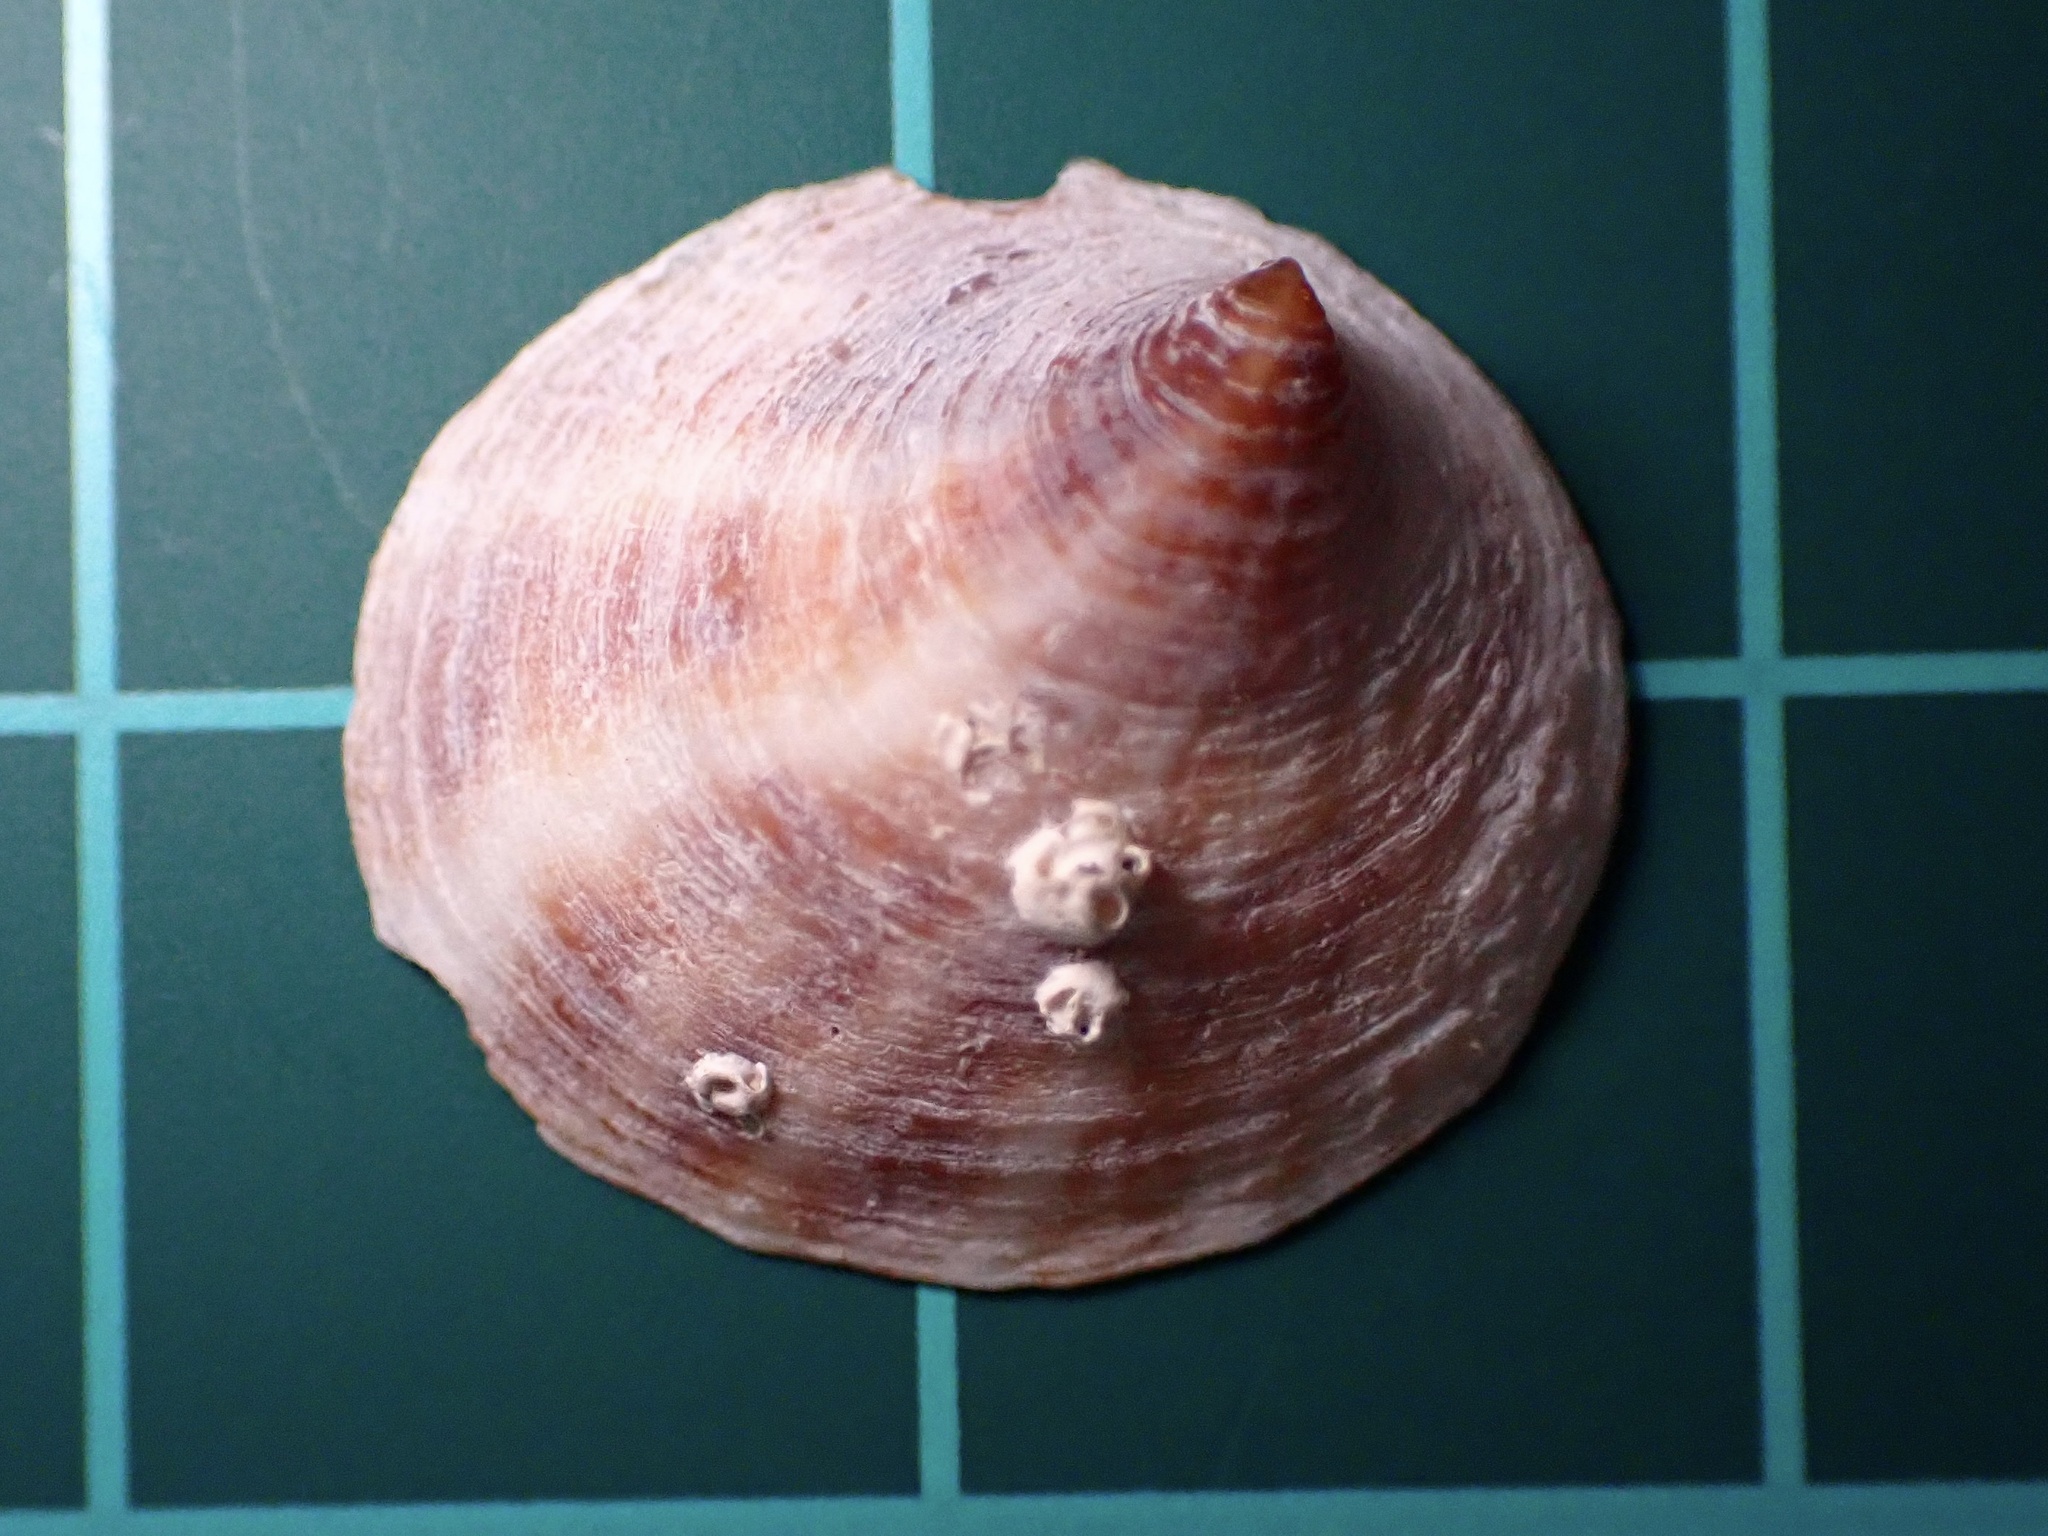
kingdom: Animalia
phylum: Mollusca
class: Gastropoda
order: Littorinimorpha
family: Calyptraeidae
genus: Crepipatella
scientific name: Crepipatella lingulata
